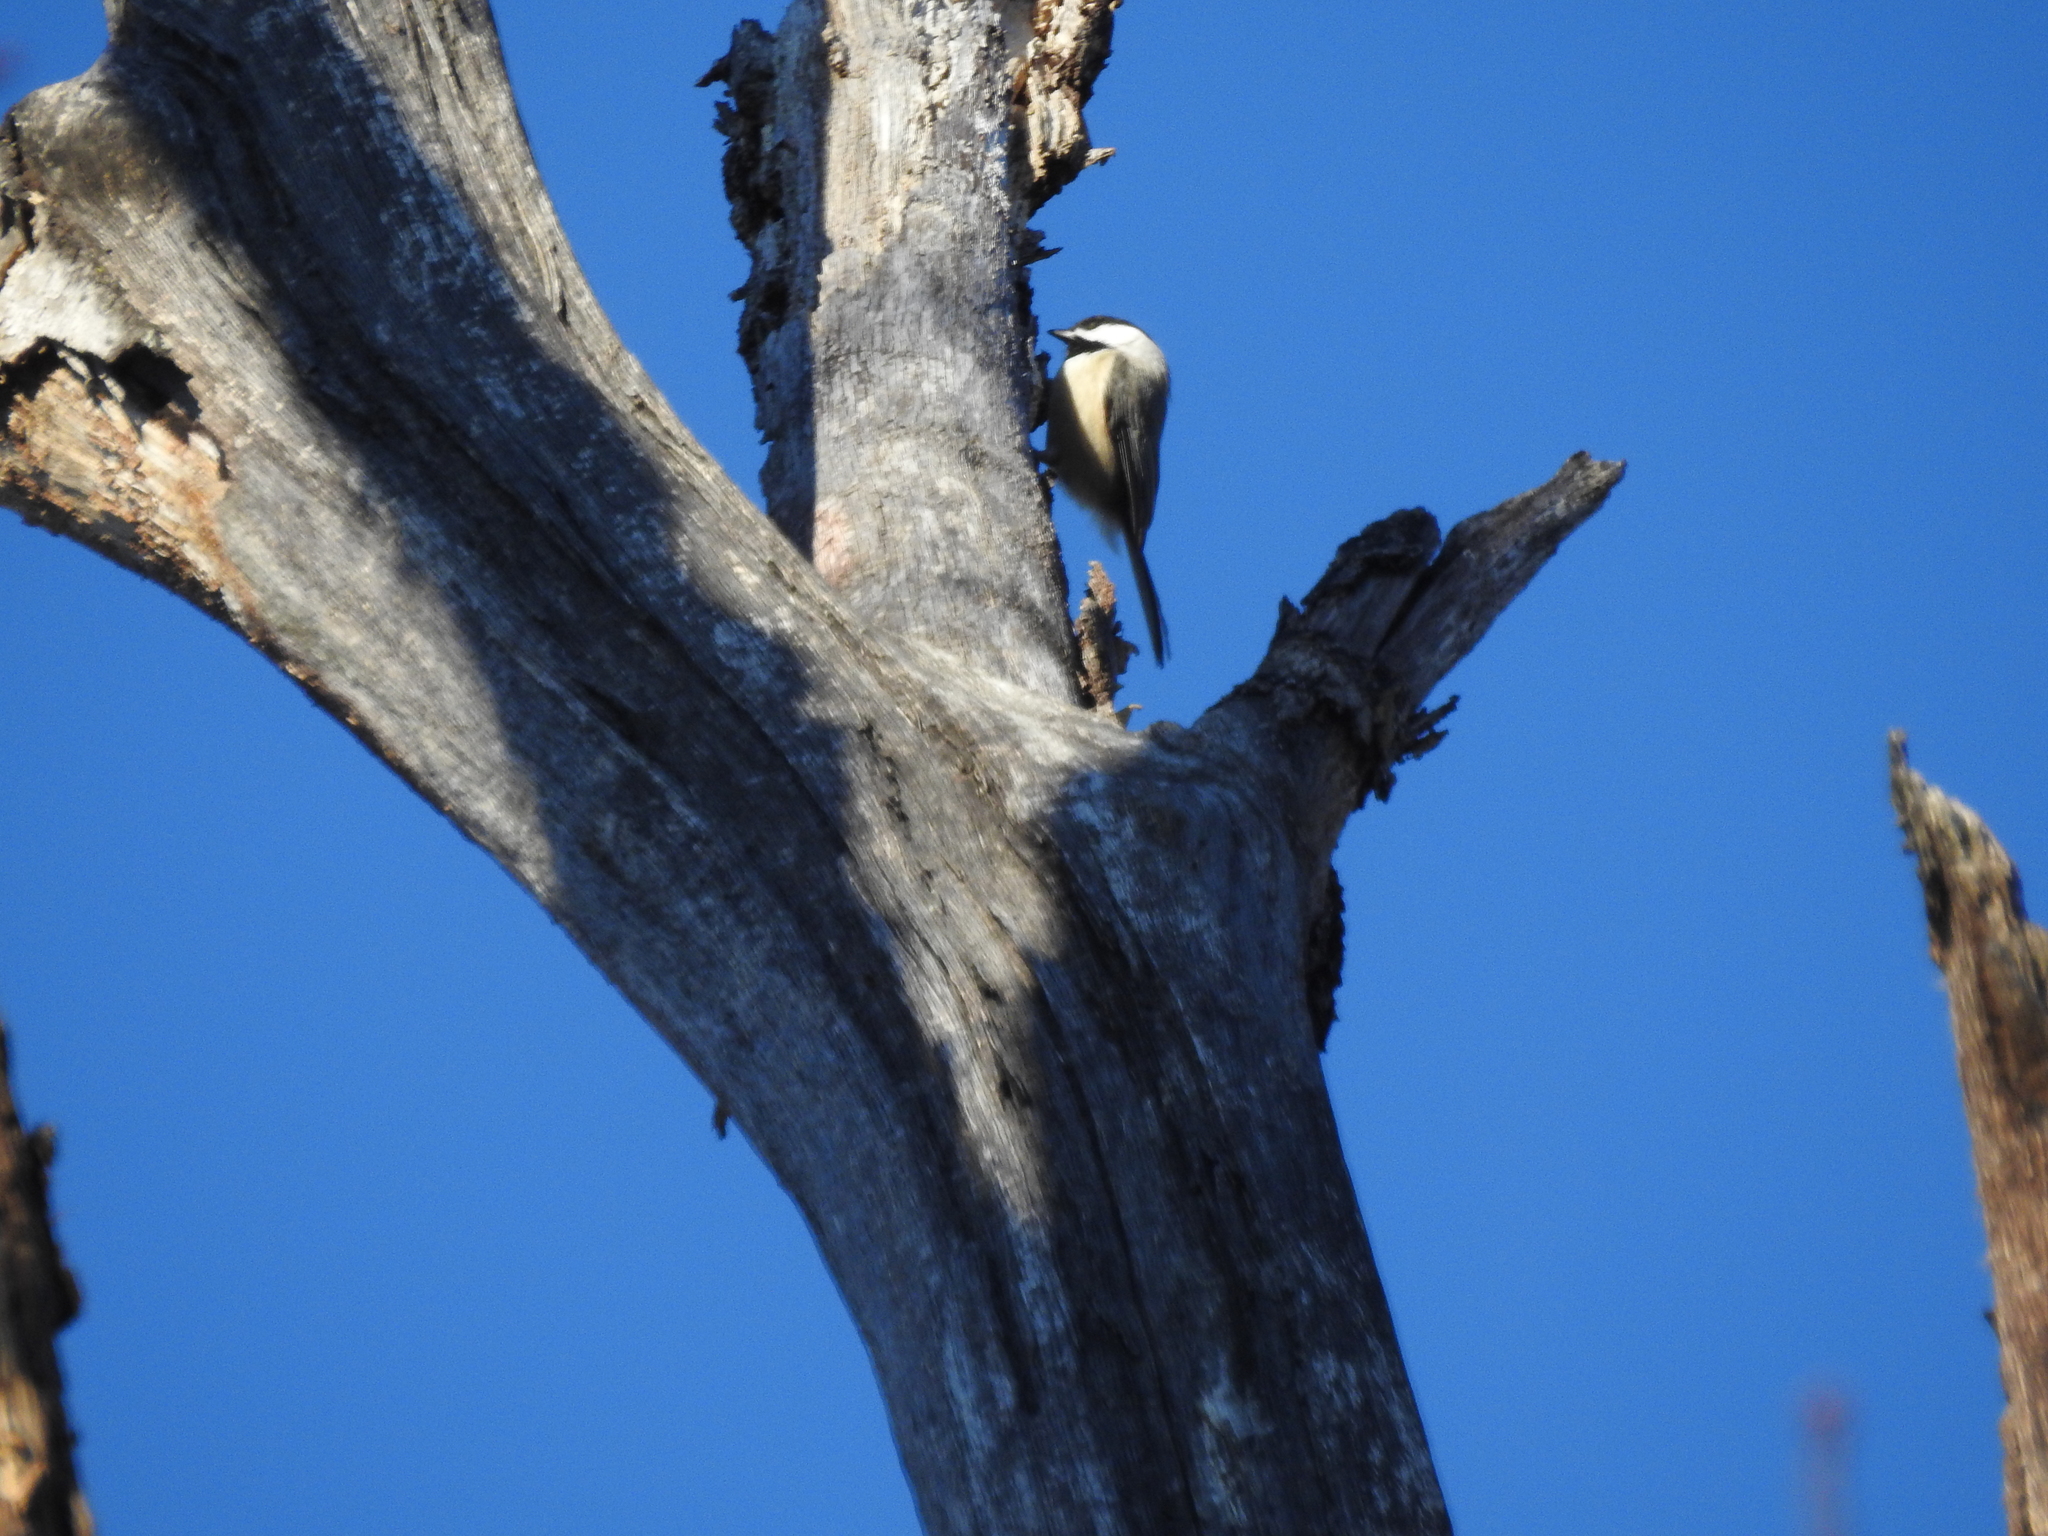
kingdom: Animalia
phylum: Chordata
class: Aves
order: Passeriformes
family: Paridae
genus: Poecile
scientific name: Poecile carolinensis
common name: Carolina chickadee
